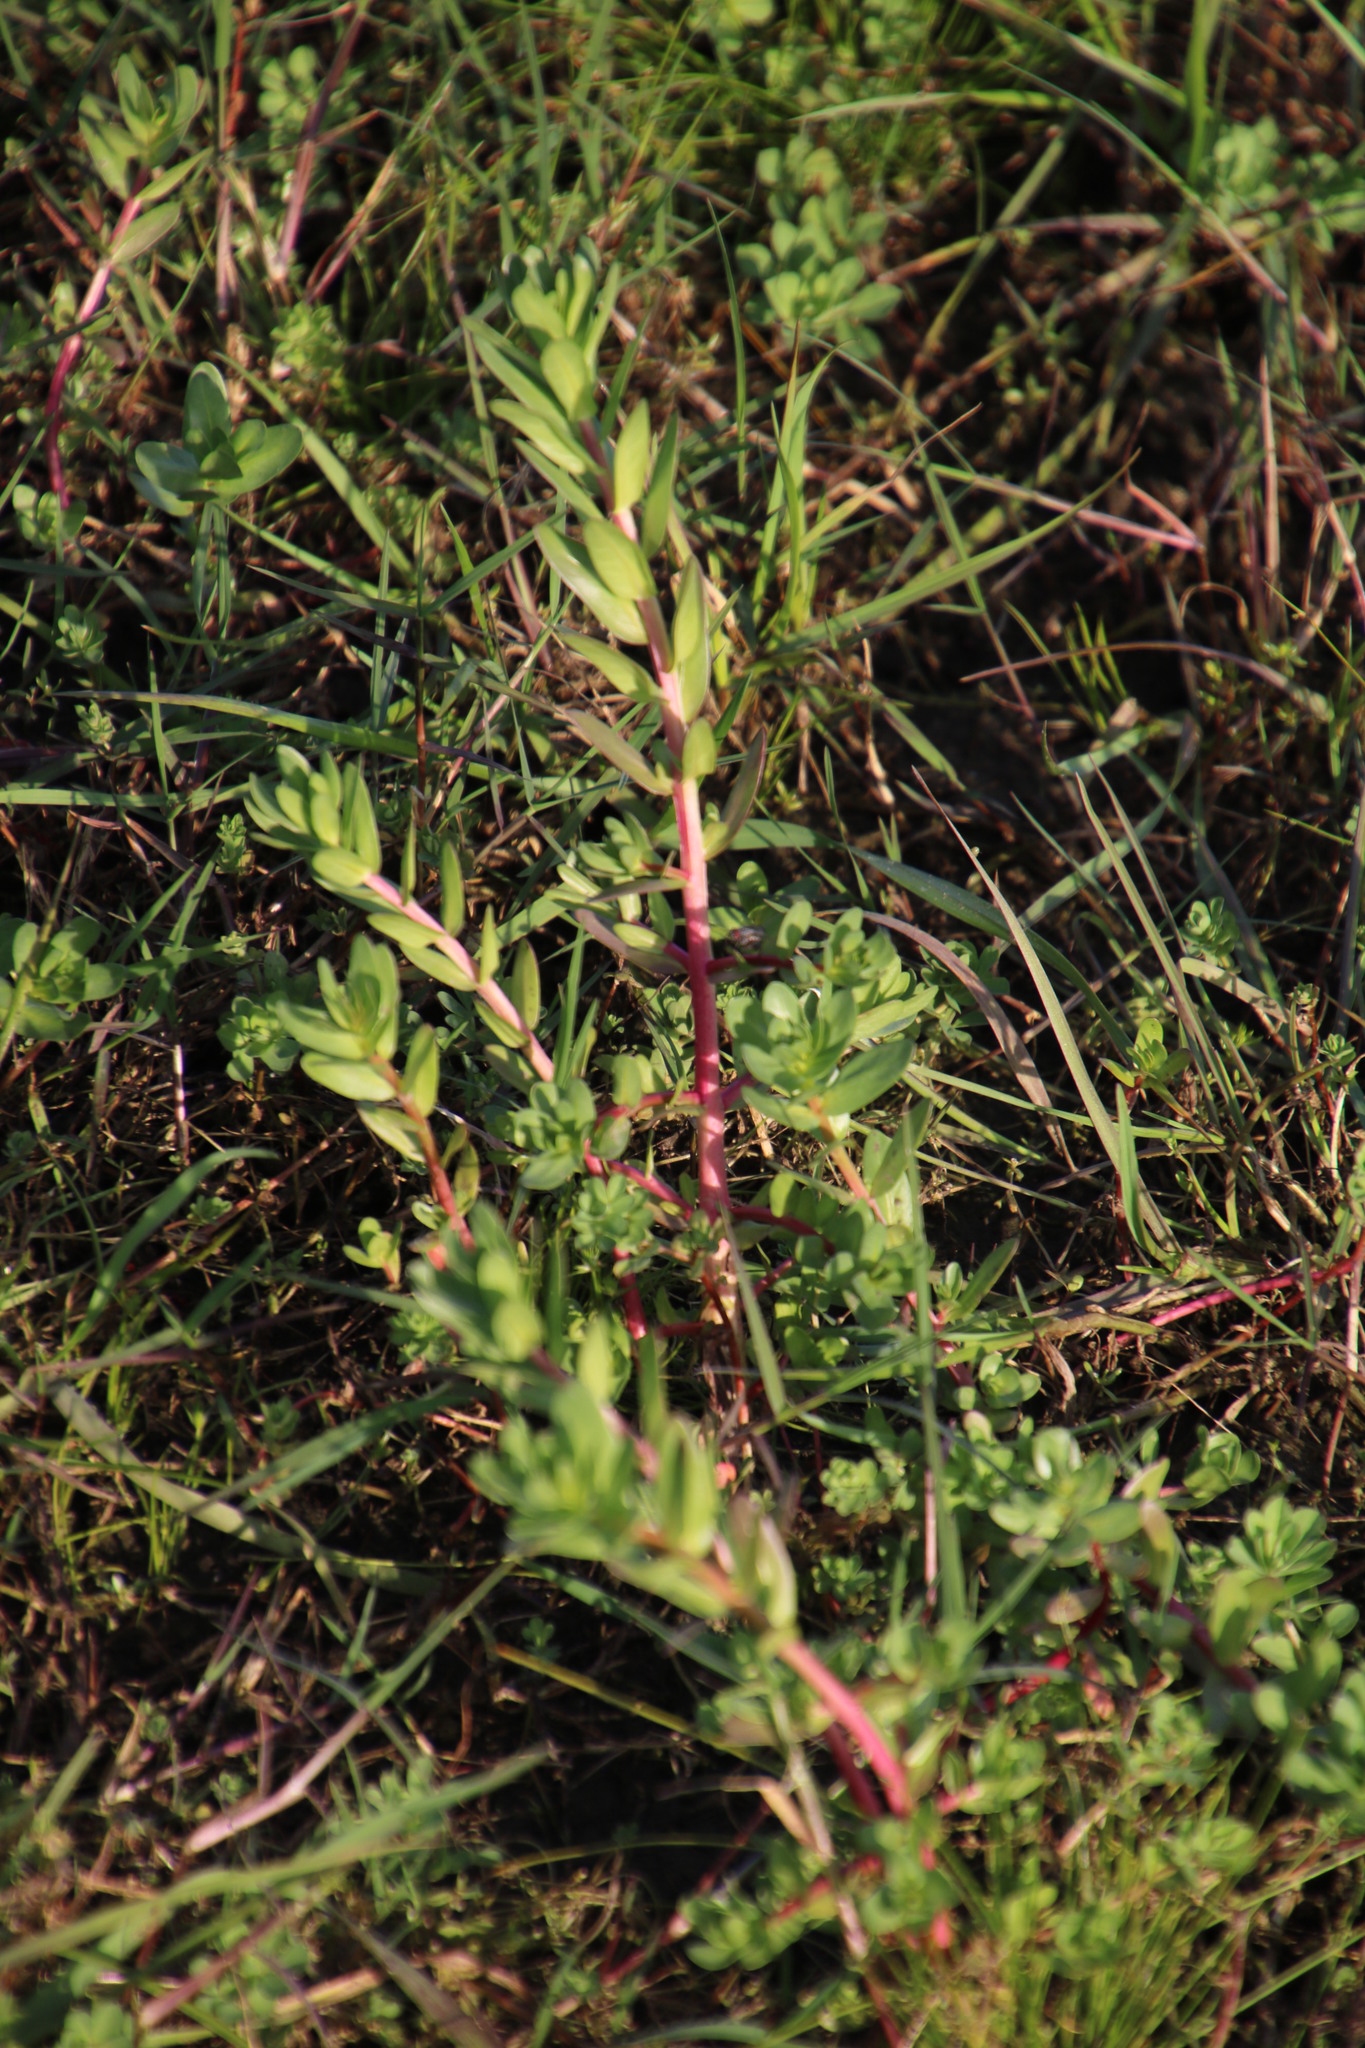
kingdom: Plantae
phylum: Tracheophyta
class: Magnoliopsida
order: Myrtales
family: Lythraceae
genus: Lythrum
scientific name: Lythrum hyssopifolia
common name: Grass-poly
